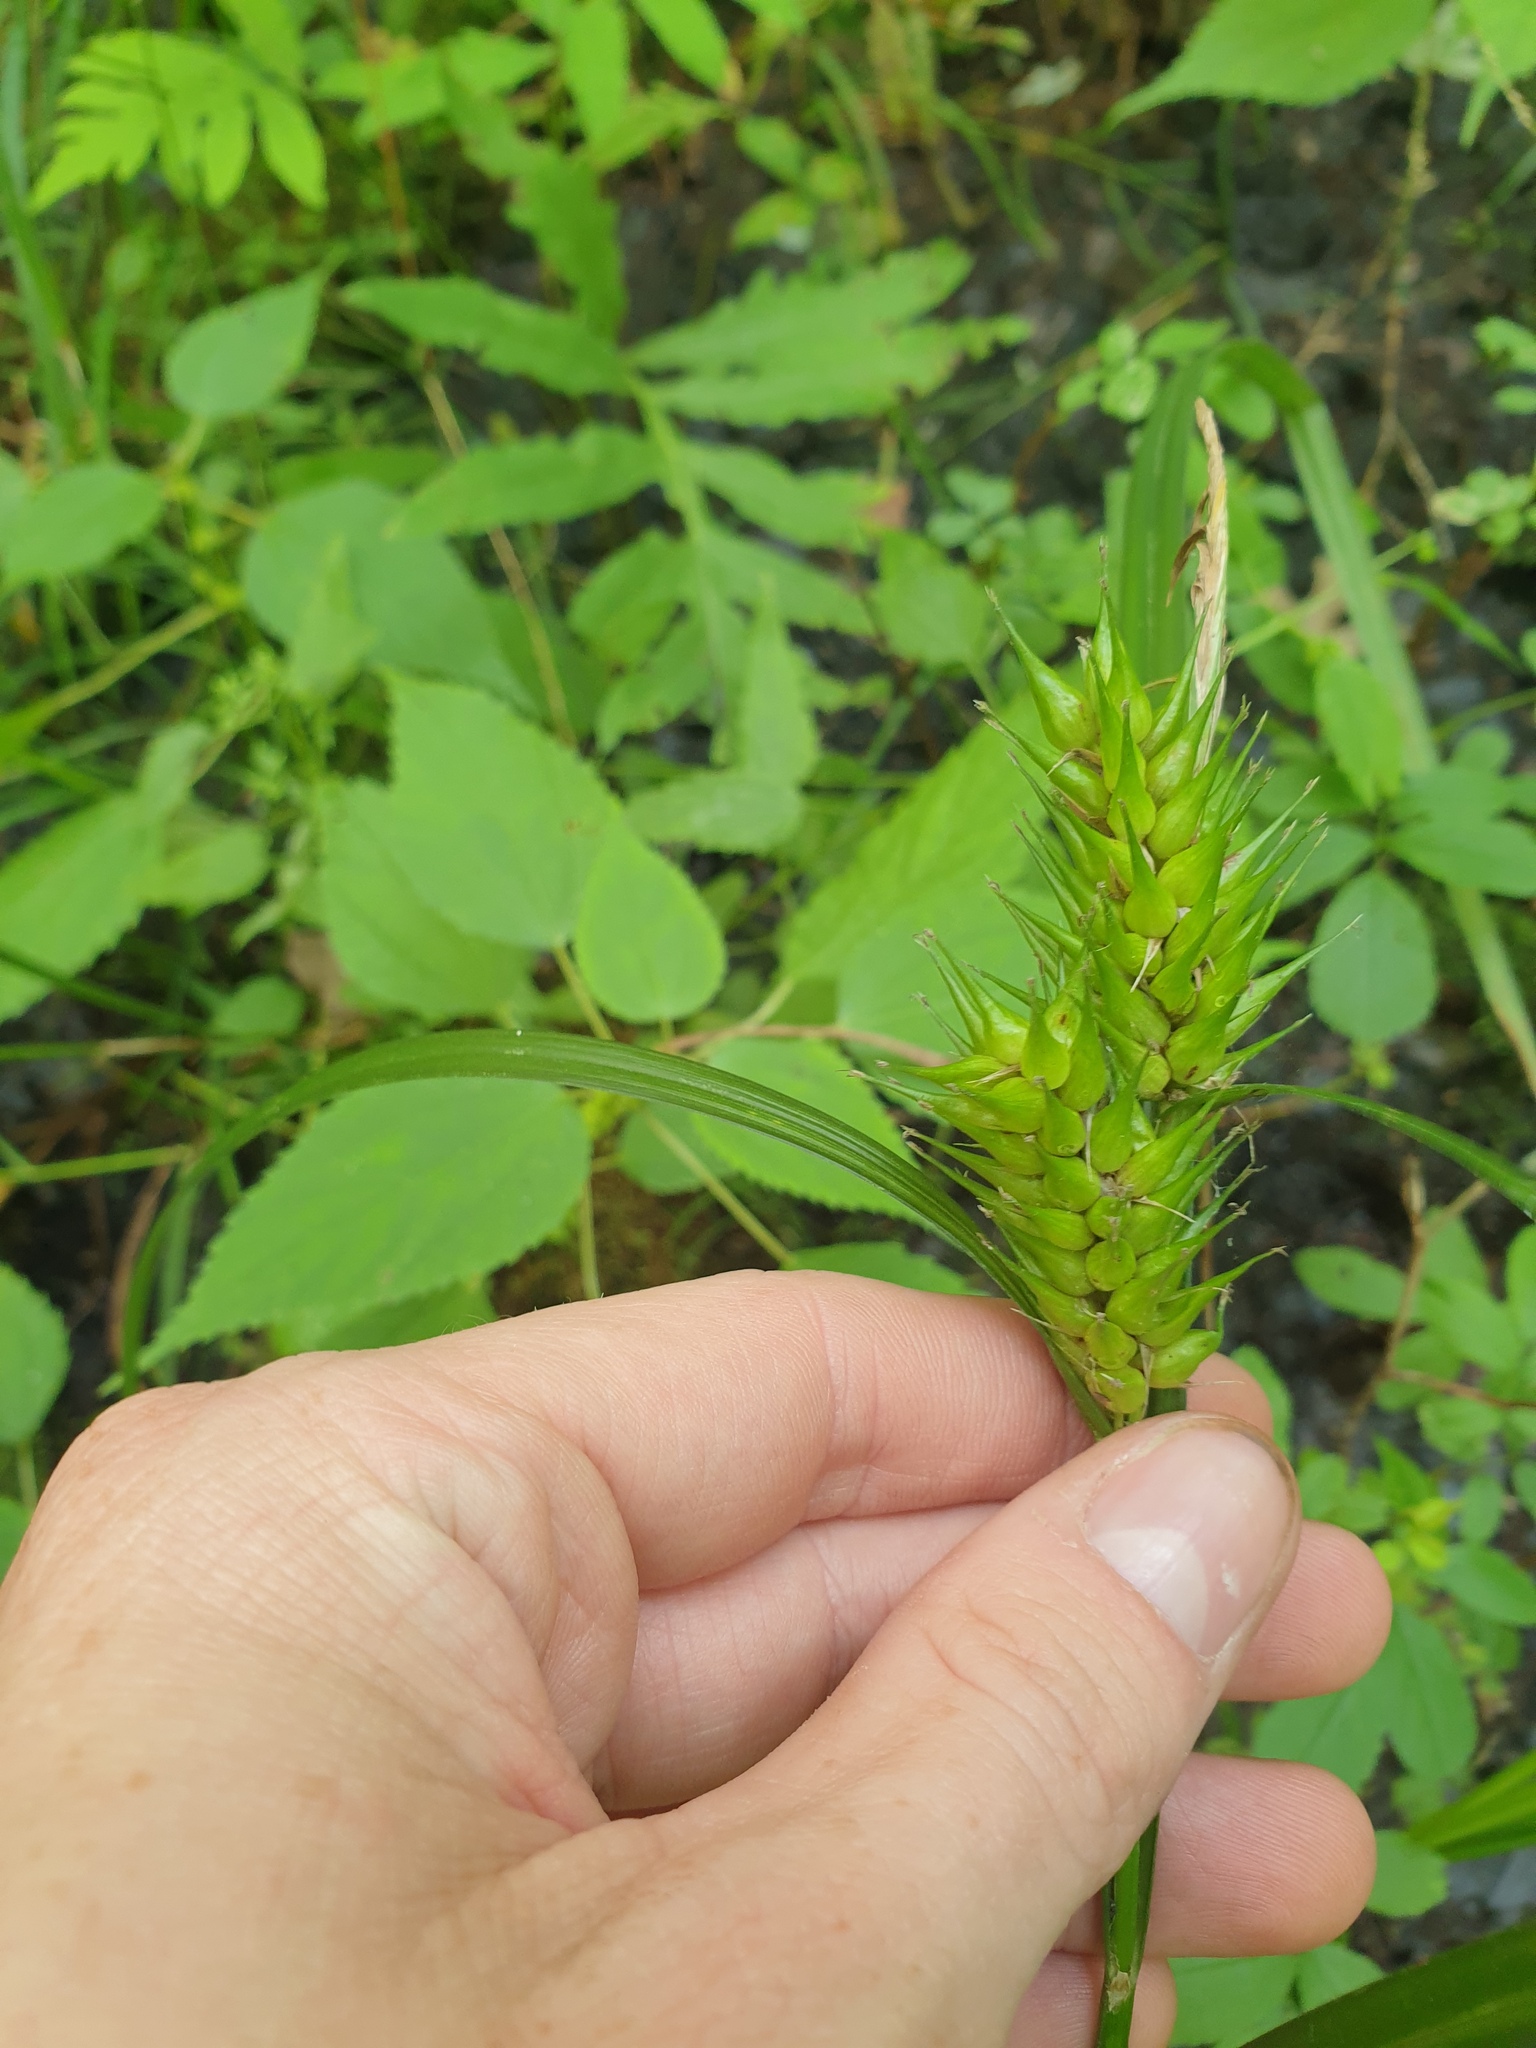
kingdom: Plantae
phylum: Tracheophyta
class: Liliopsida
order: Poales
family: Cyperaceae
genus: Carex
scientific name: Carex lupulina
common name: Hop sedge
